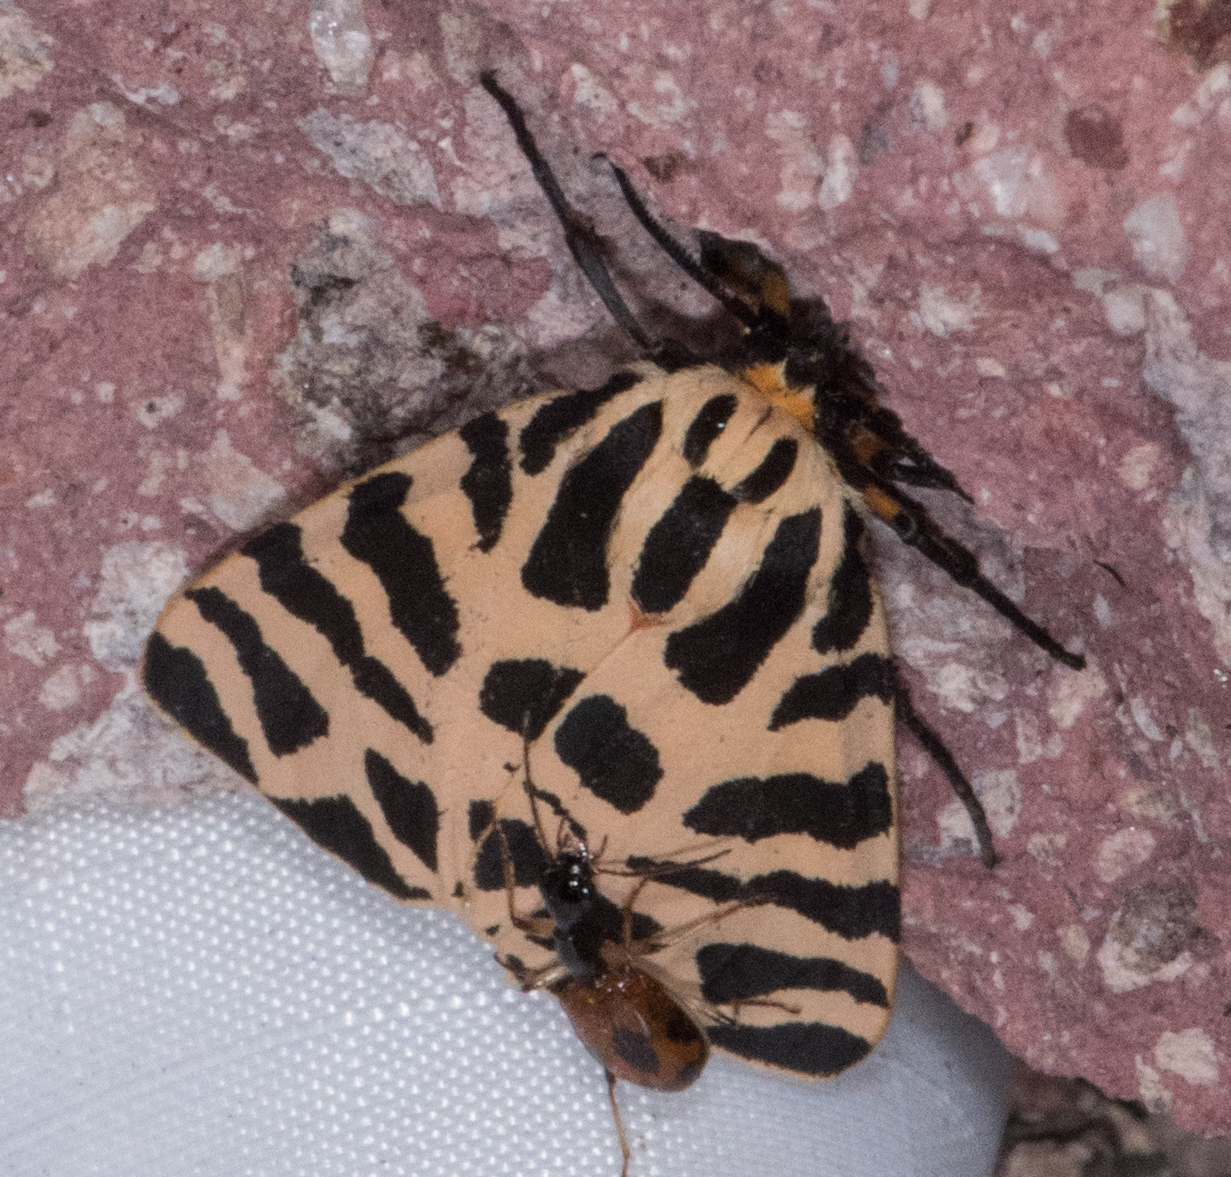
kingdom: Animalia
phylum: Arthropoda
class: Insecta
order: Lepidoptera
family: Erebidae
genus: Apantesis
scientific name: Apantesis incorrupta
